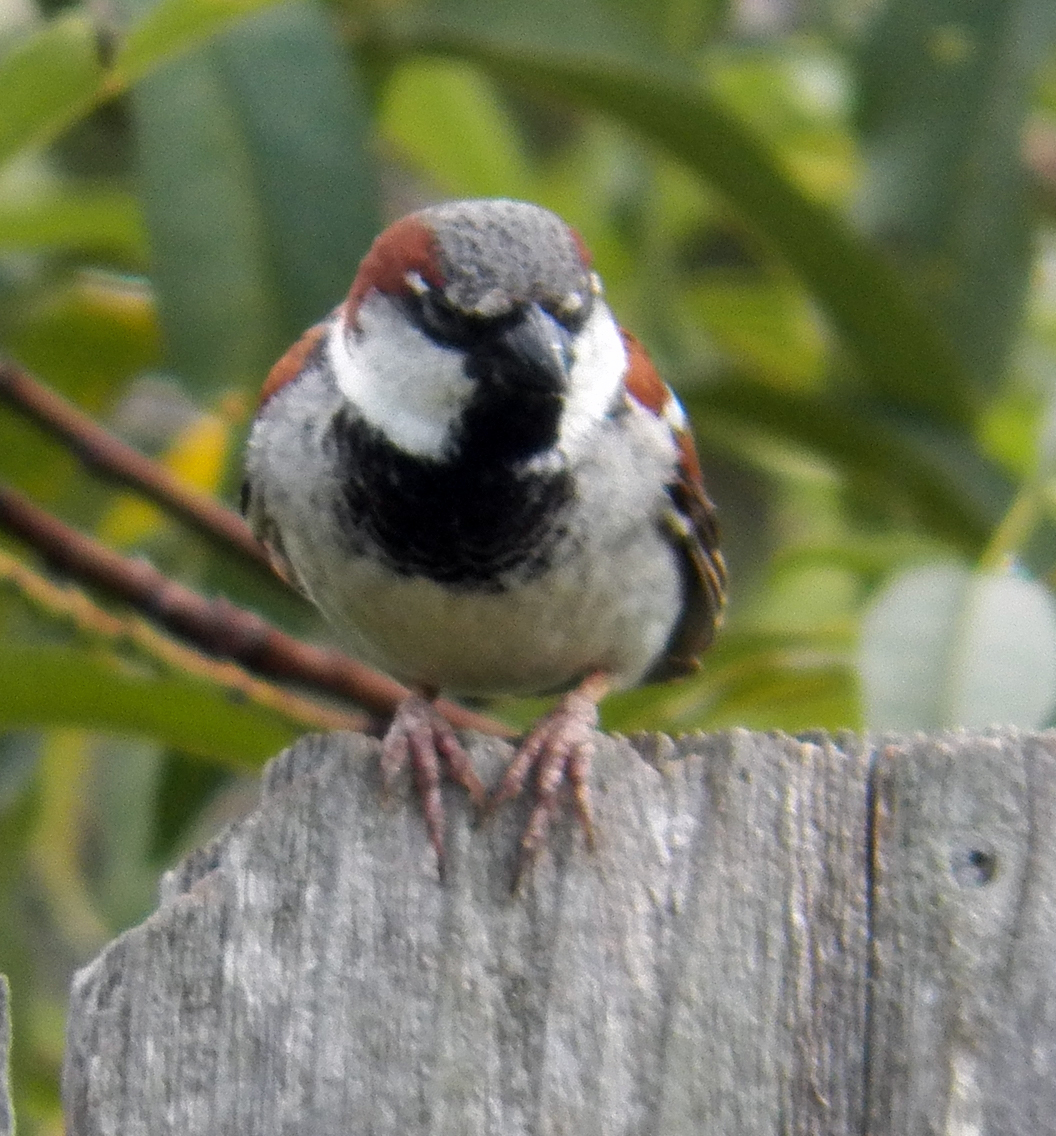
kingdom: Animalia
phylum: Chordata
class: Aves
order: Passeriformes
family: Passeridae
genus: Passer
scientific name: Passer domesticus
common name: House sparrow
